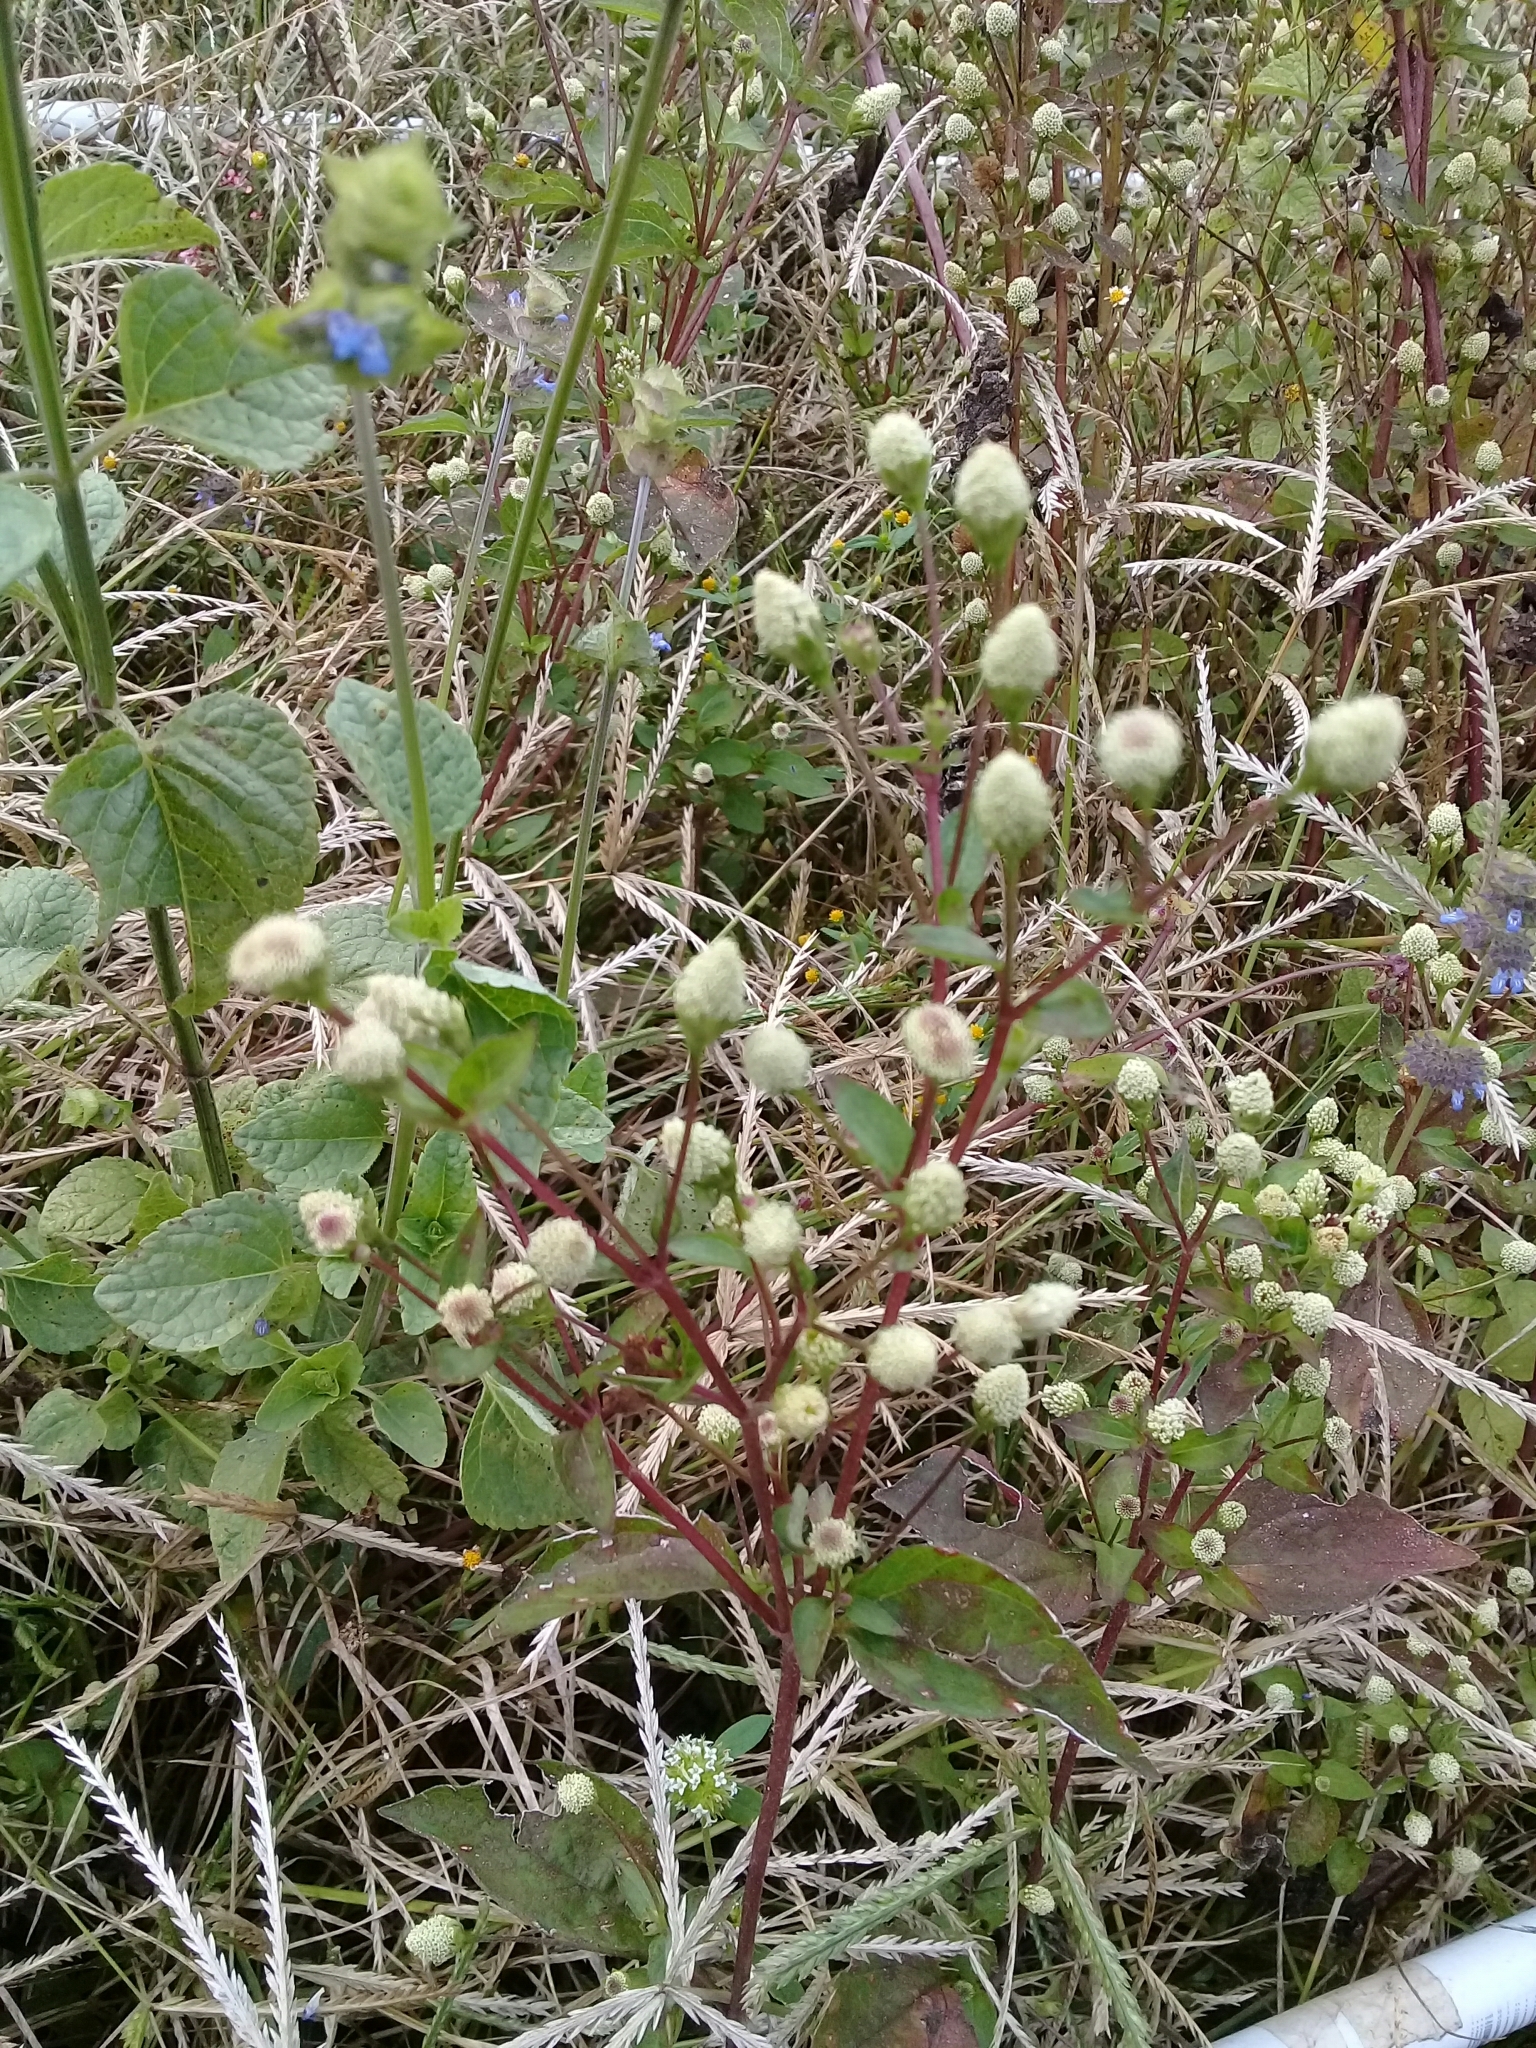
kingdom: Plantae
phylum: Tracheophyta
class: Magnoliopsida
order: Asterales
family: Asteraceae
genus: Acmella
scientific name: Acmella radicans
